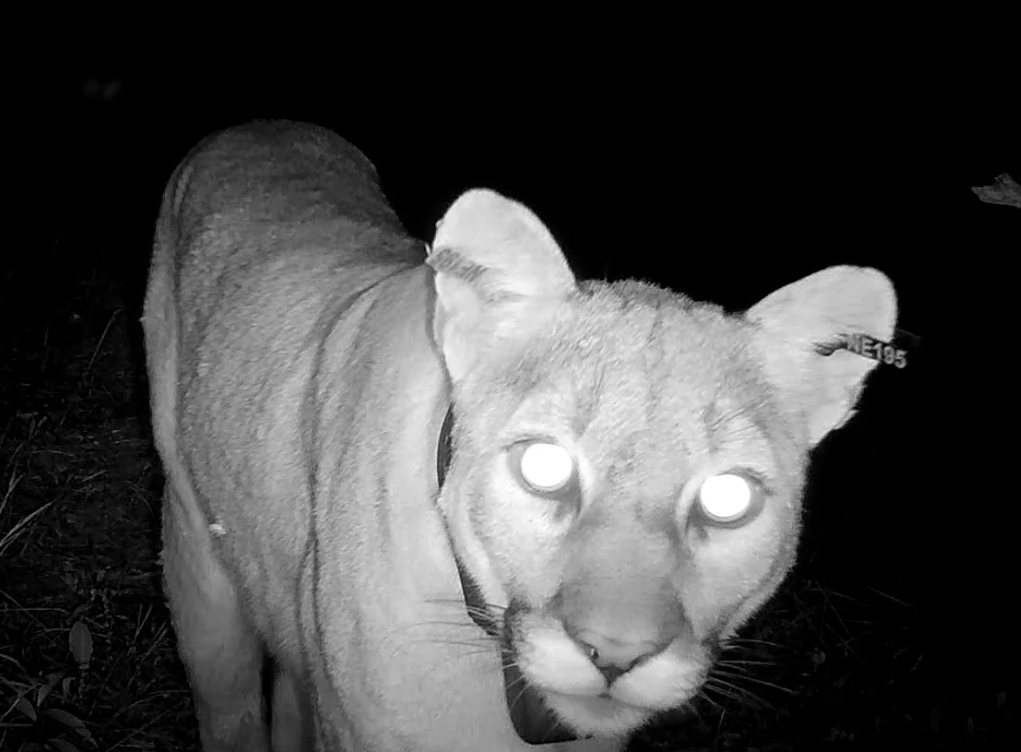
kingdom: Animalia
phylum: Chordata
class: Mammalia
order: Carnivora
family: Felidae
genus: Puma
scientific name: Puma concolor
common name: Puma
